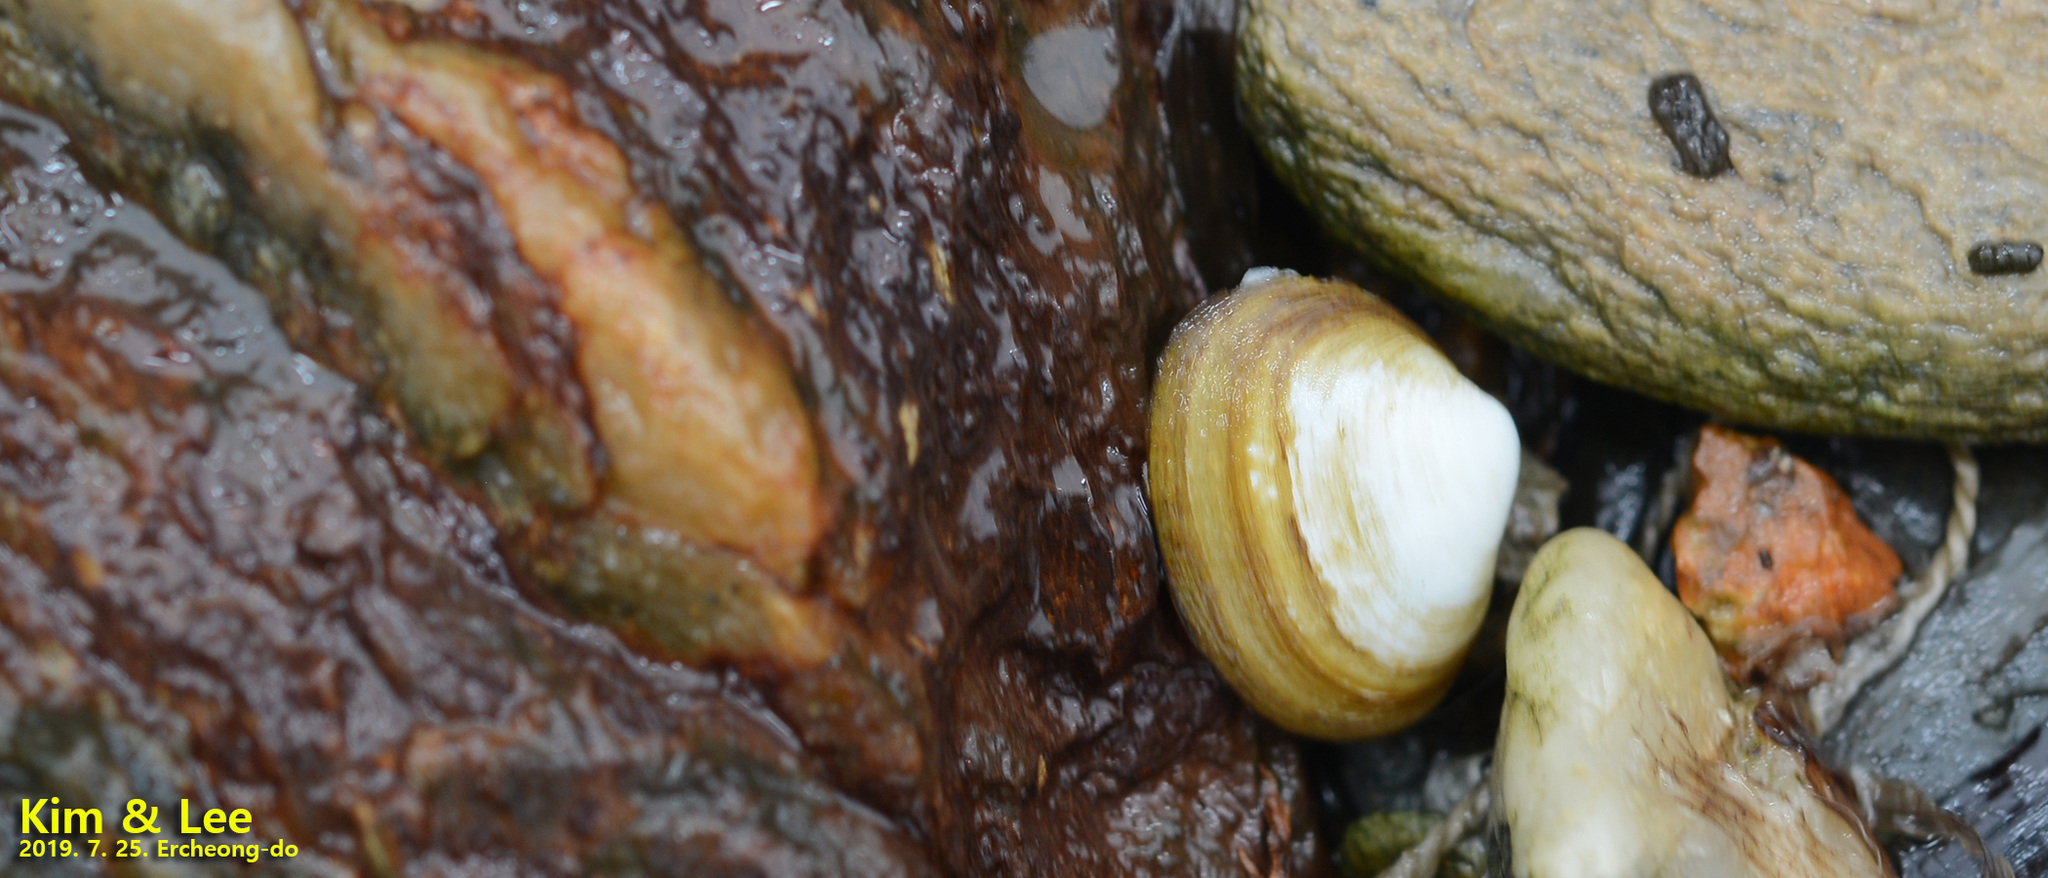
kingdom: Animalia
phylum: Mollusca
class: Bivalvia
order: Venerida
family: Mesodesmatidae
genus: Coecella
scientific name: Coecella chinensis
